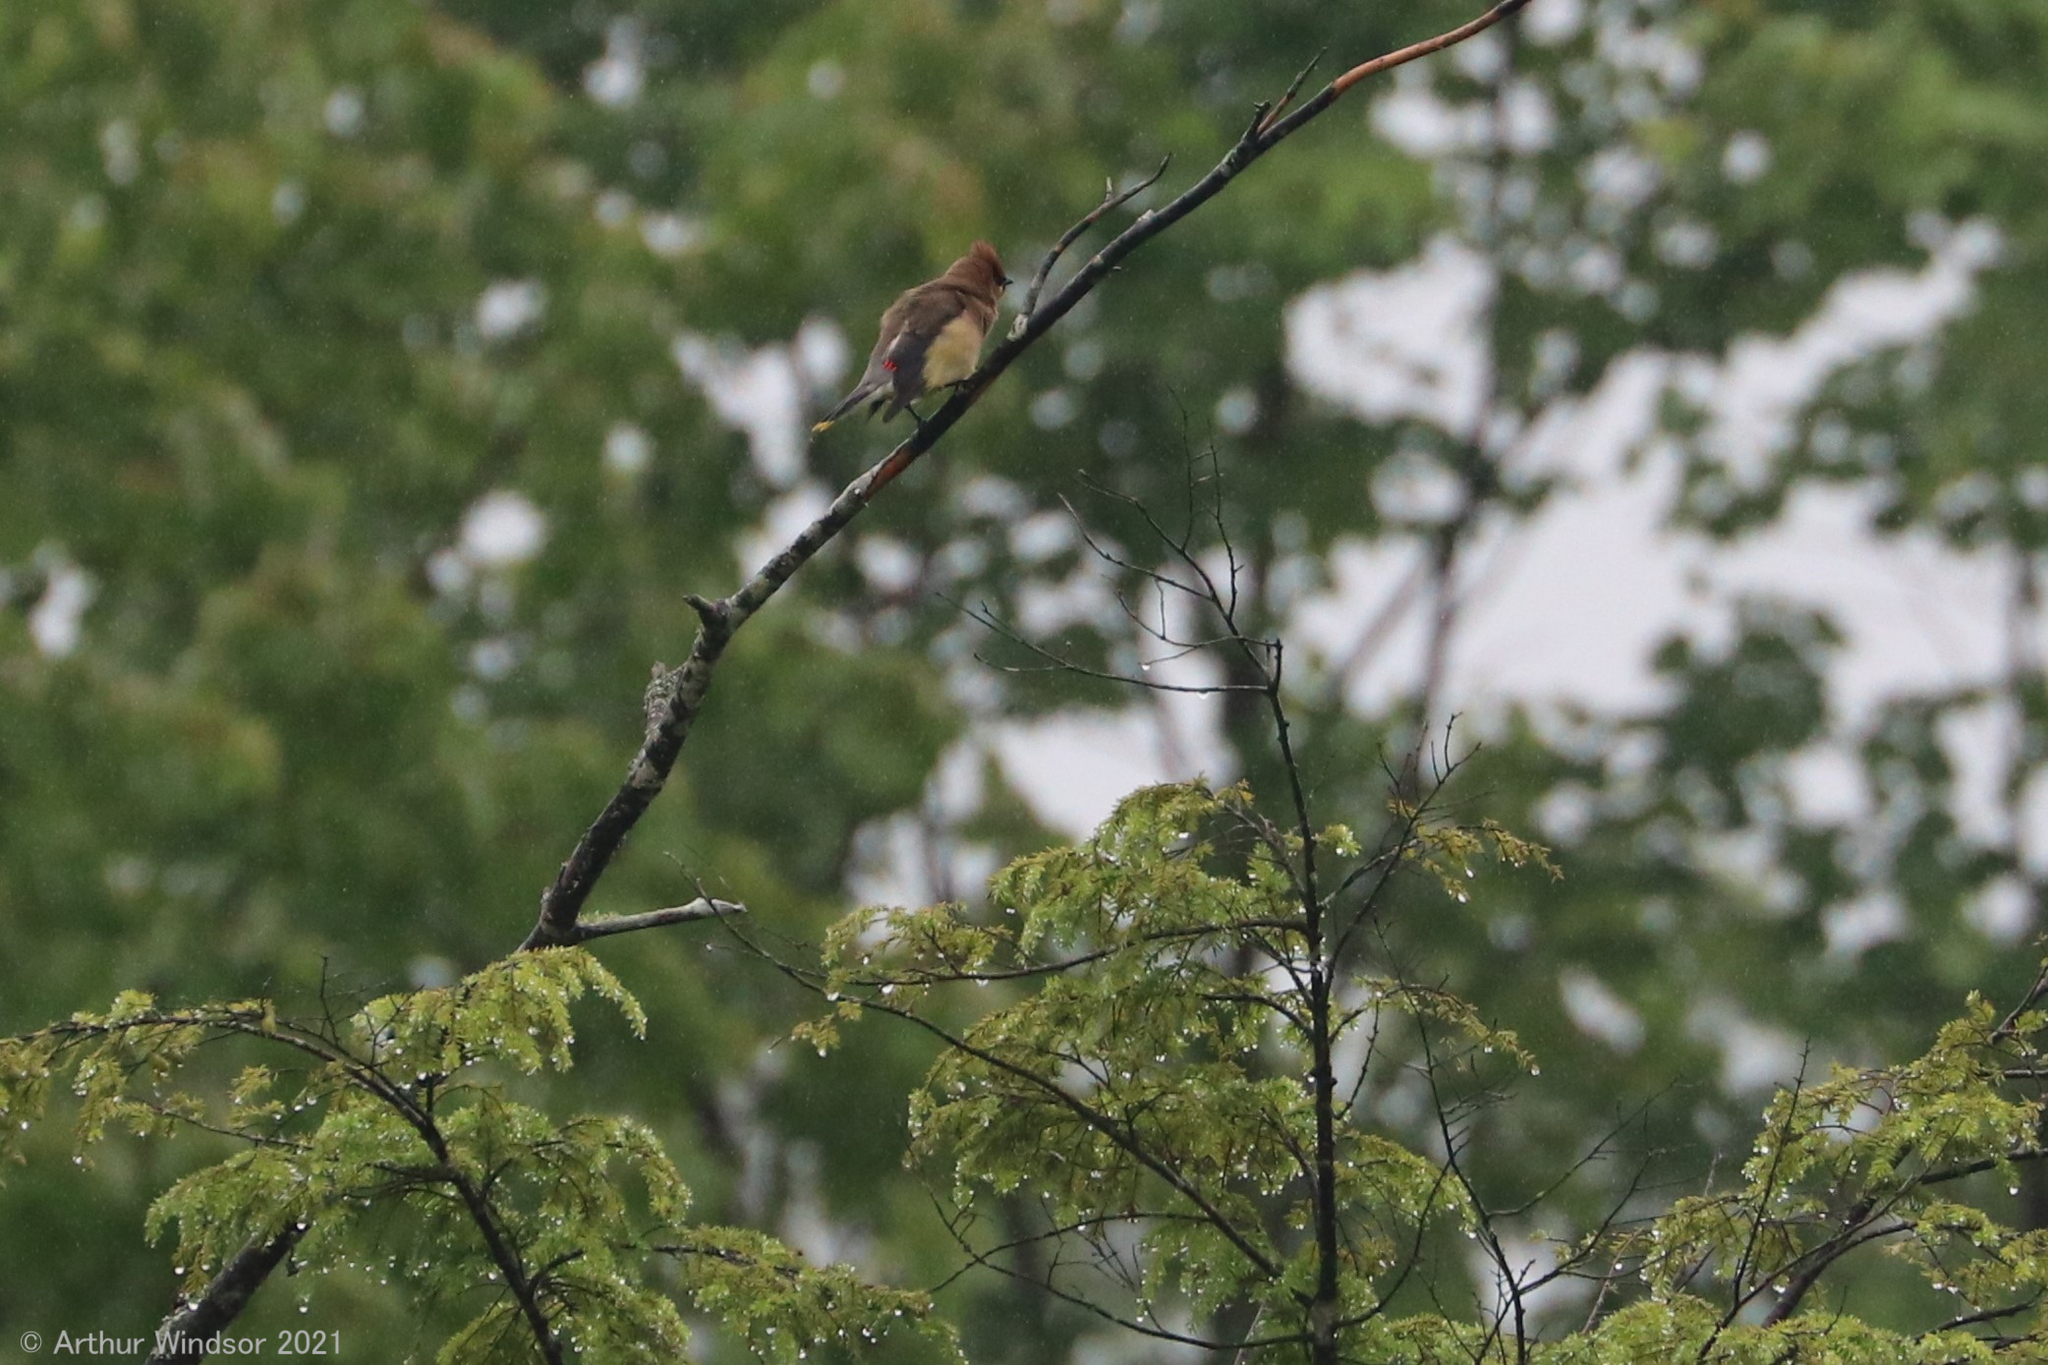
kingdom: Animalia
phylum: Chordata
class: Aves
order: Passeriformes
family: Bombycillidae
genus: Bombycilla
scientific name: Bombycilla cedrorum
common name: Cedar waxwing
